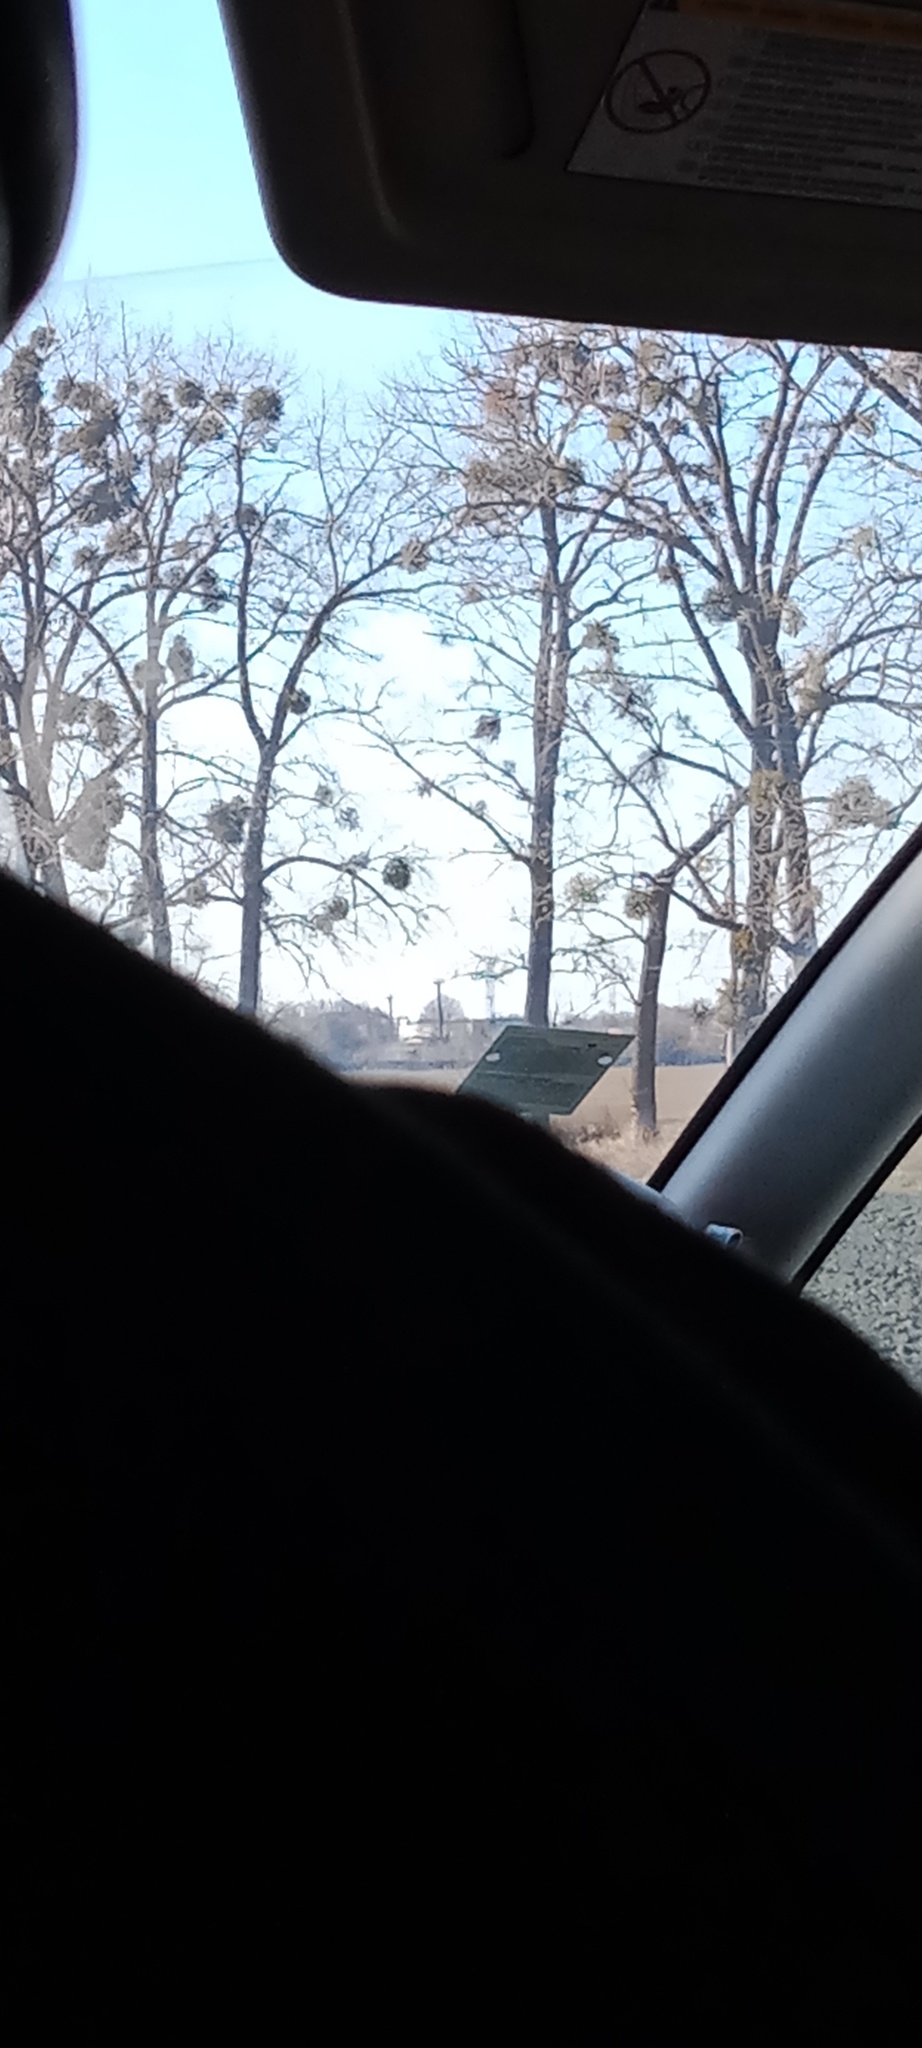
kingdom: Plantae
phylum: Tracheophyta
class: Magnoliopsida
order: Santalales
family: Viscaceae
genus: Viscum
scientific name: Viscum album
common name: Mistletoe
